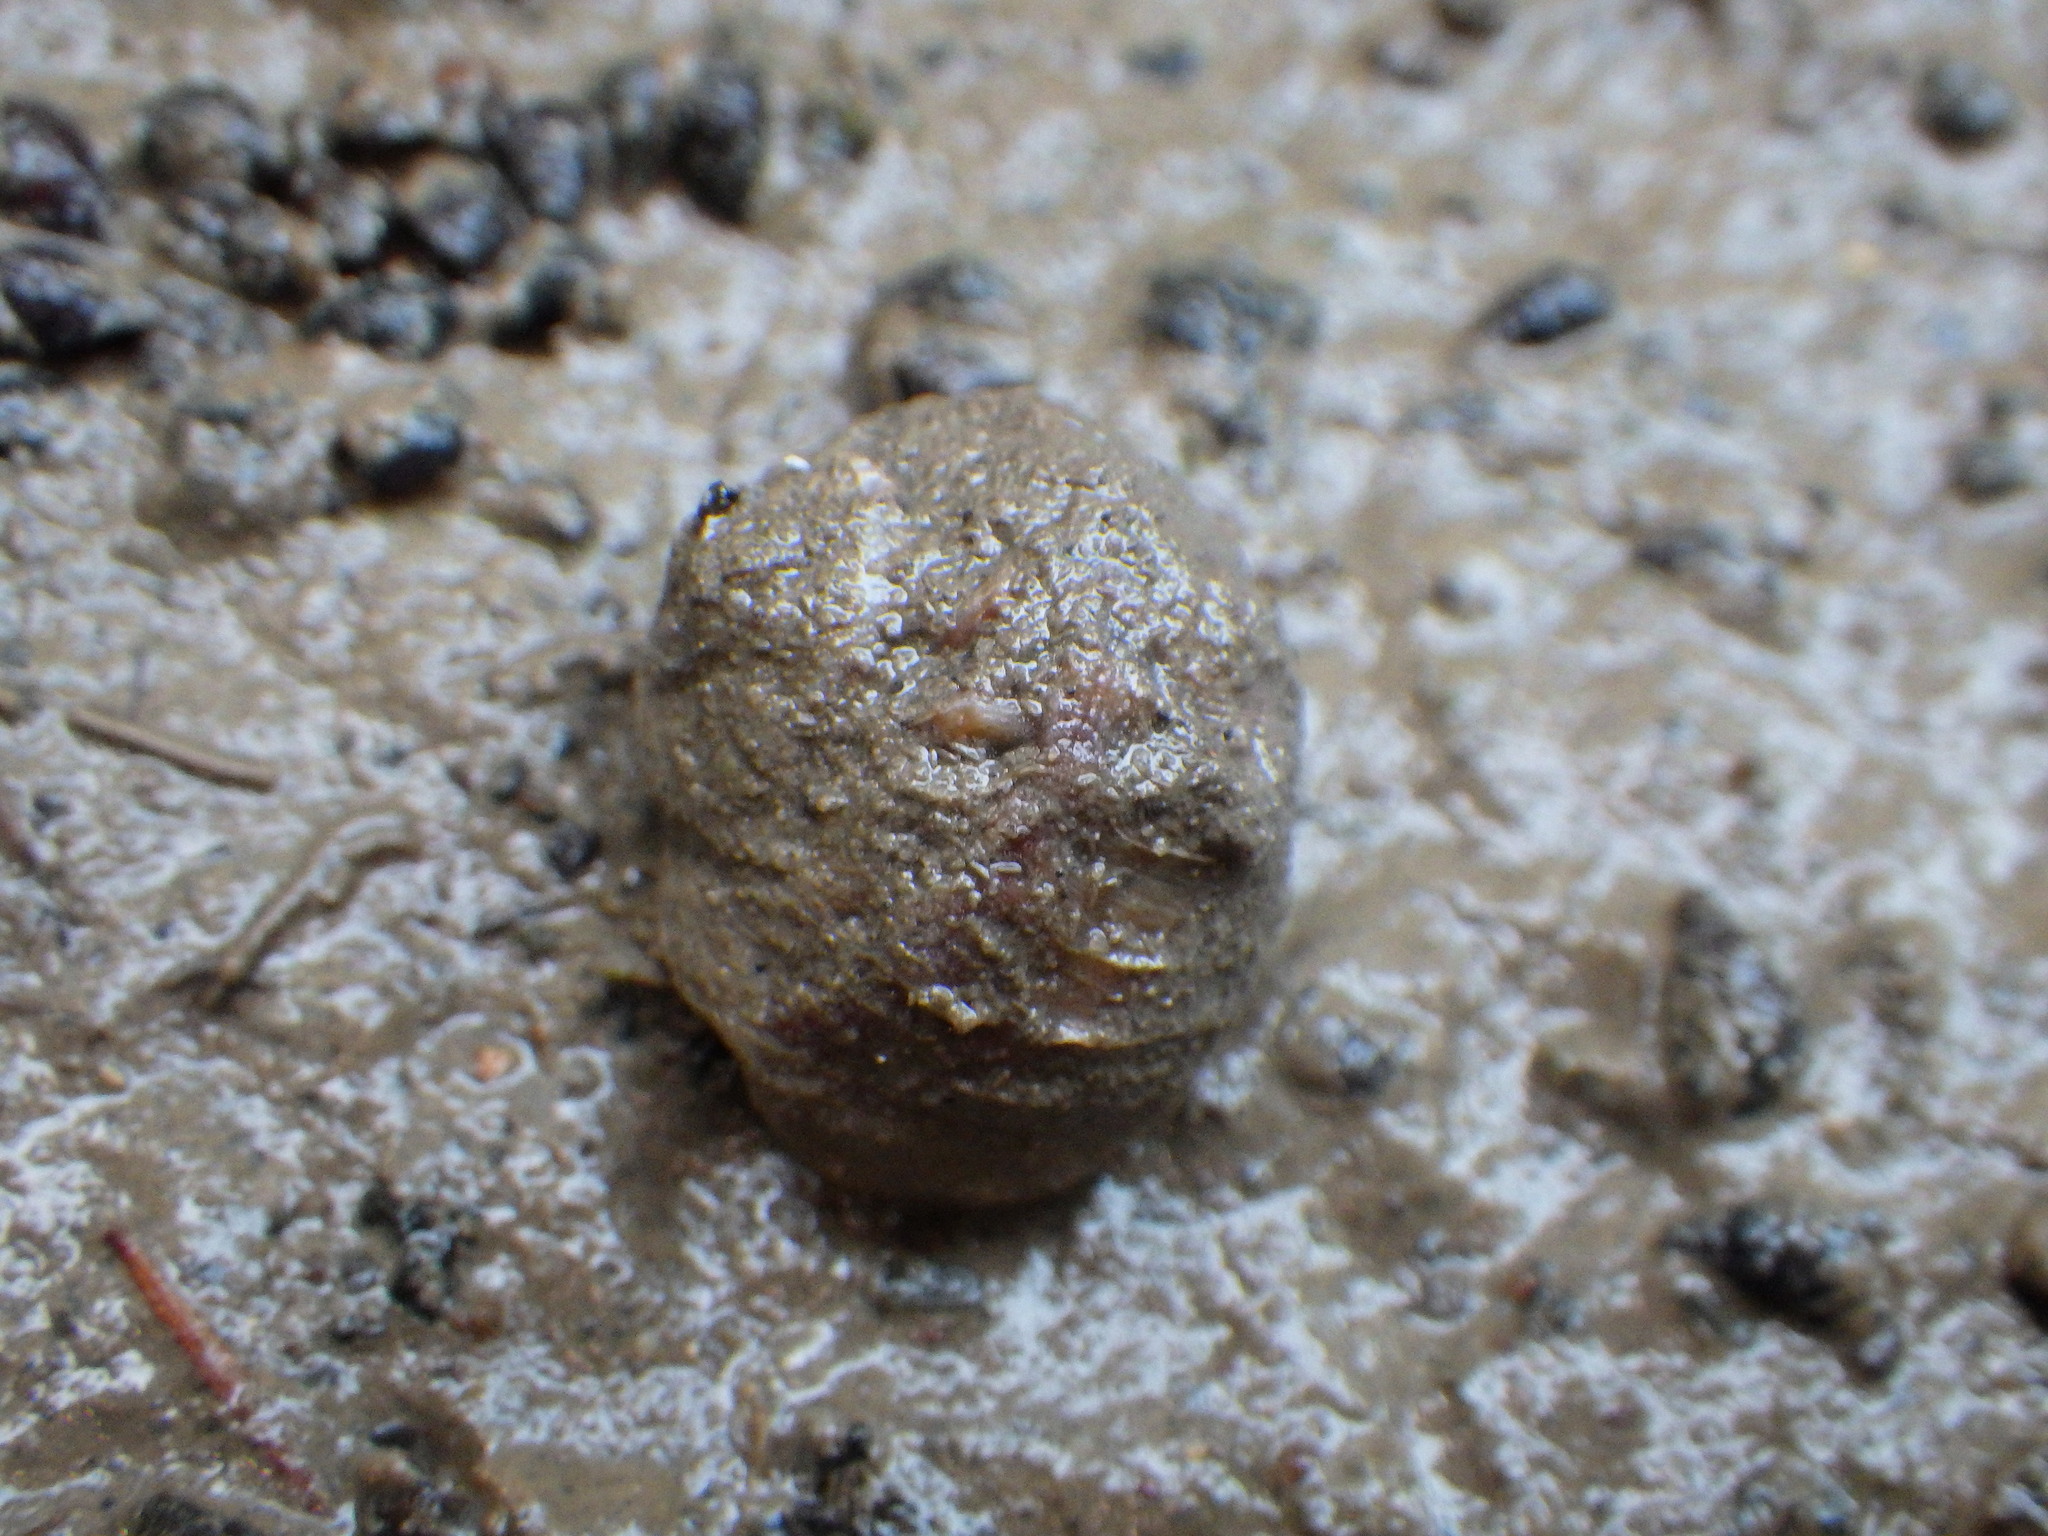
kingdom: Animalia
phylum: Mollusca
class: Gastropoda
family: Amphibolidae
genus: Amphibola
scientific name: Amphibola crenata
